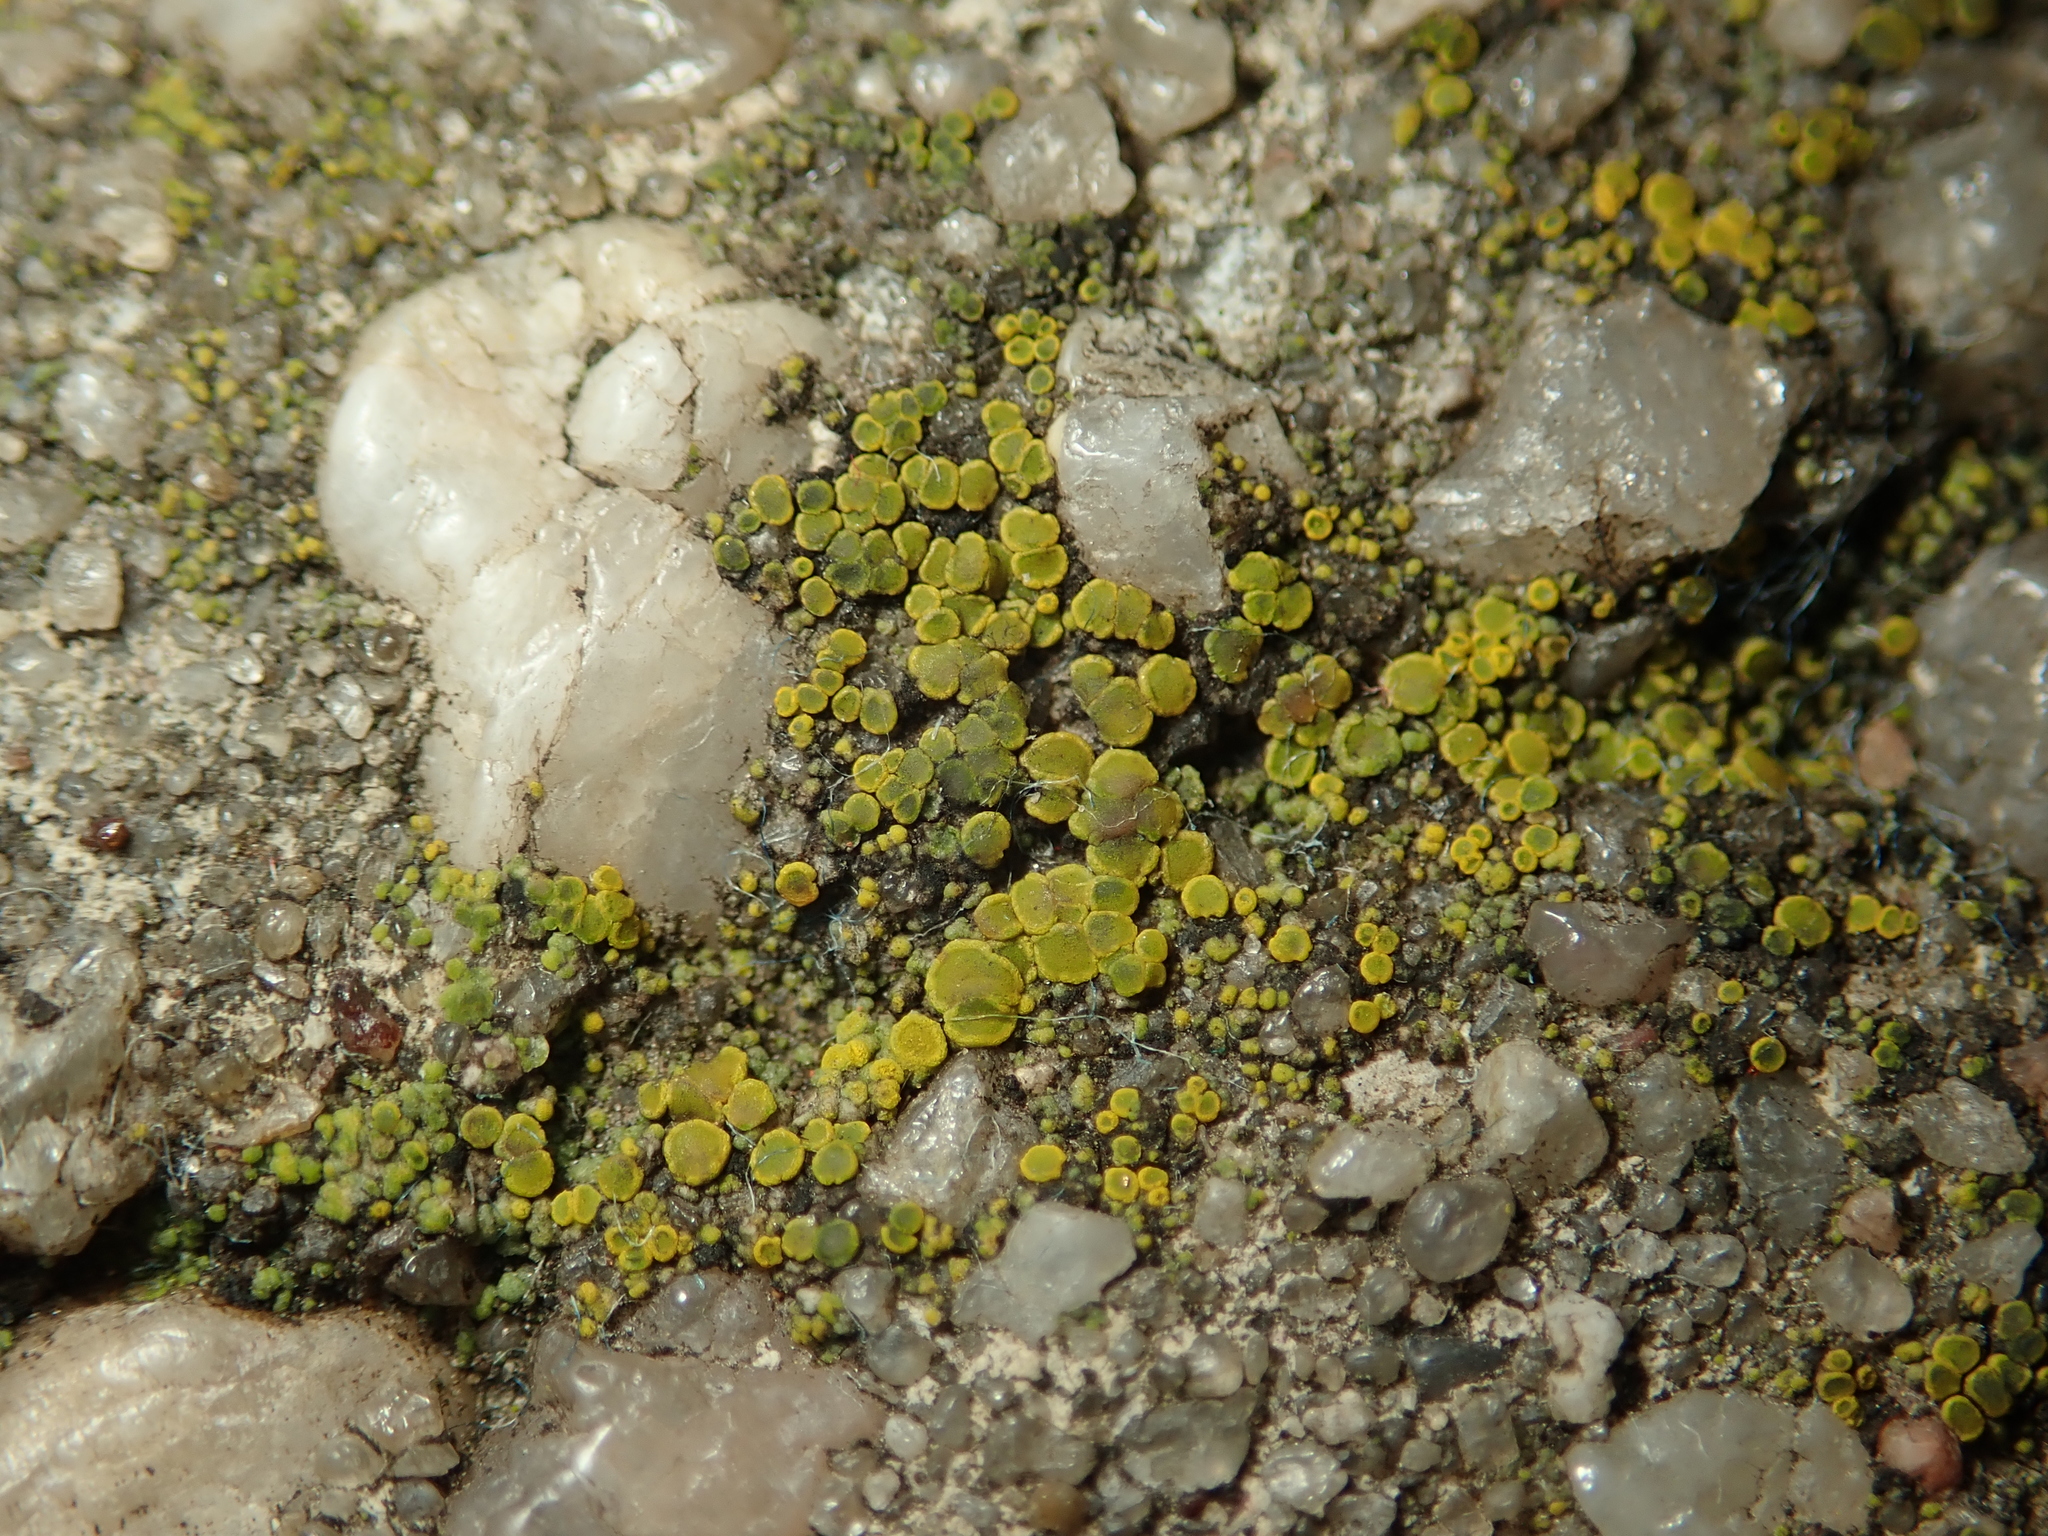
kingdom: Fungi
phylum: Ascomycota
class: Candelariomycetes
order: Candelariales
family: Candelariaceae
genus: Candelariella
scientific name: Candelariella vitellina
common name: Common goldspeck
